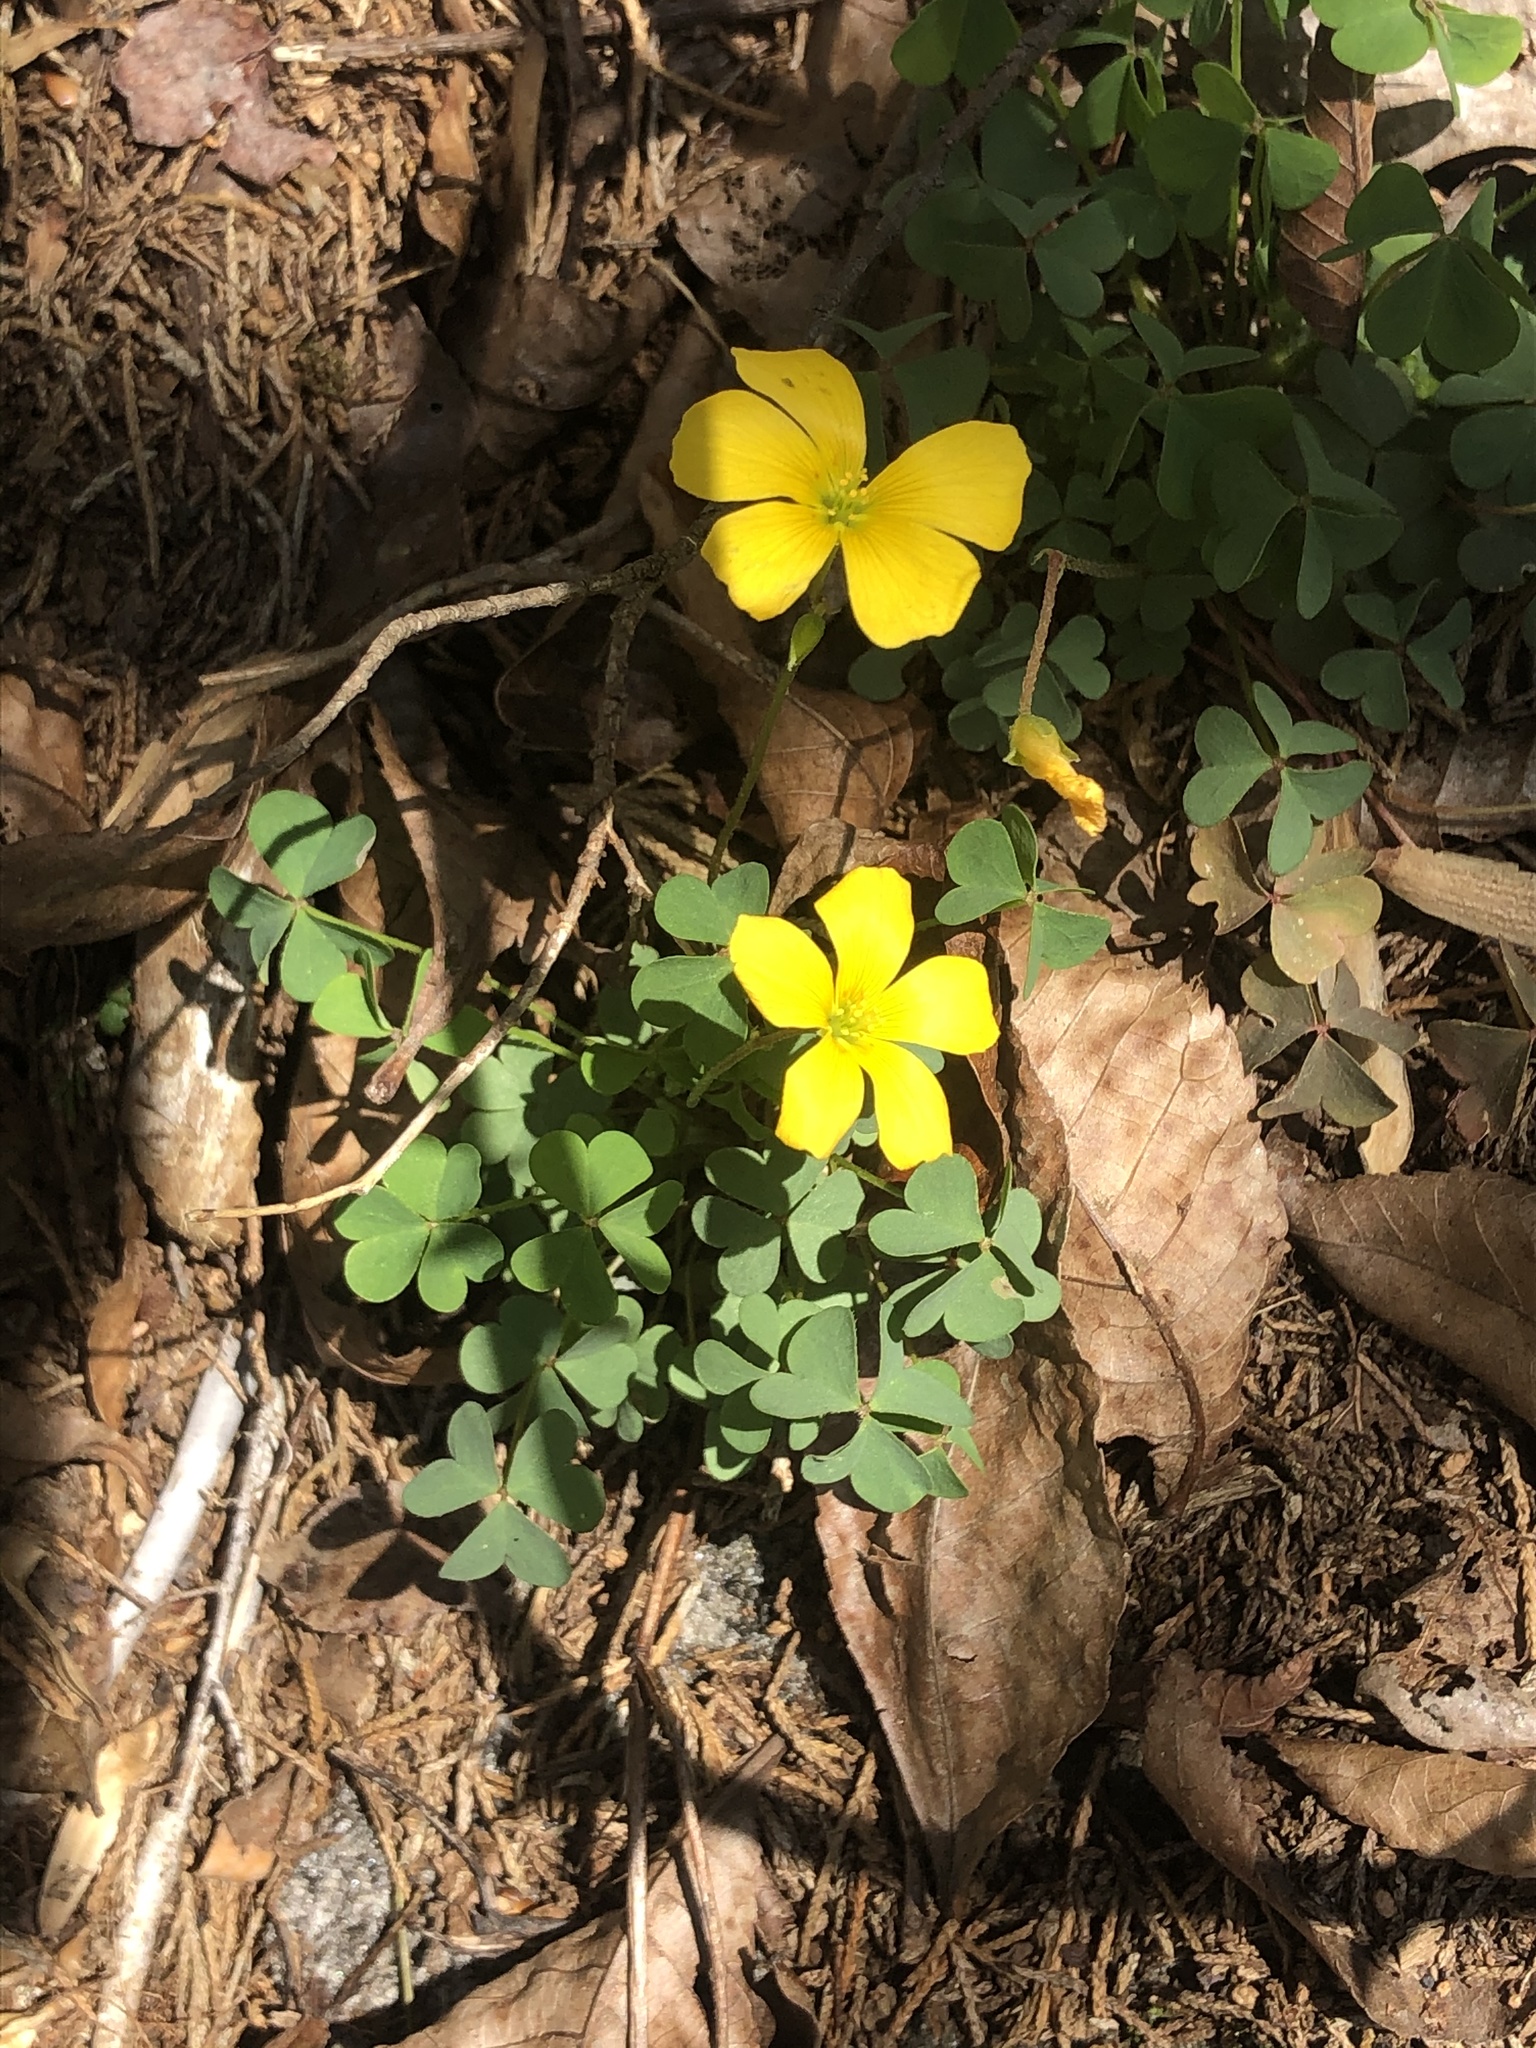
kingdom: Plantae
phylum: Tracheophyta
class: Magnoliopsida
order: Oxalidales
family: Oxalidaceae
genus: Oxalis
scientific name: Oxalis colorea
